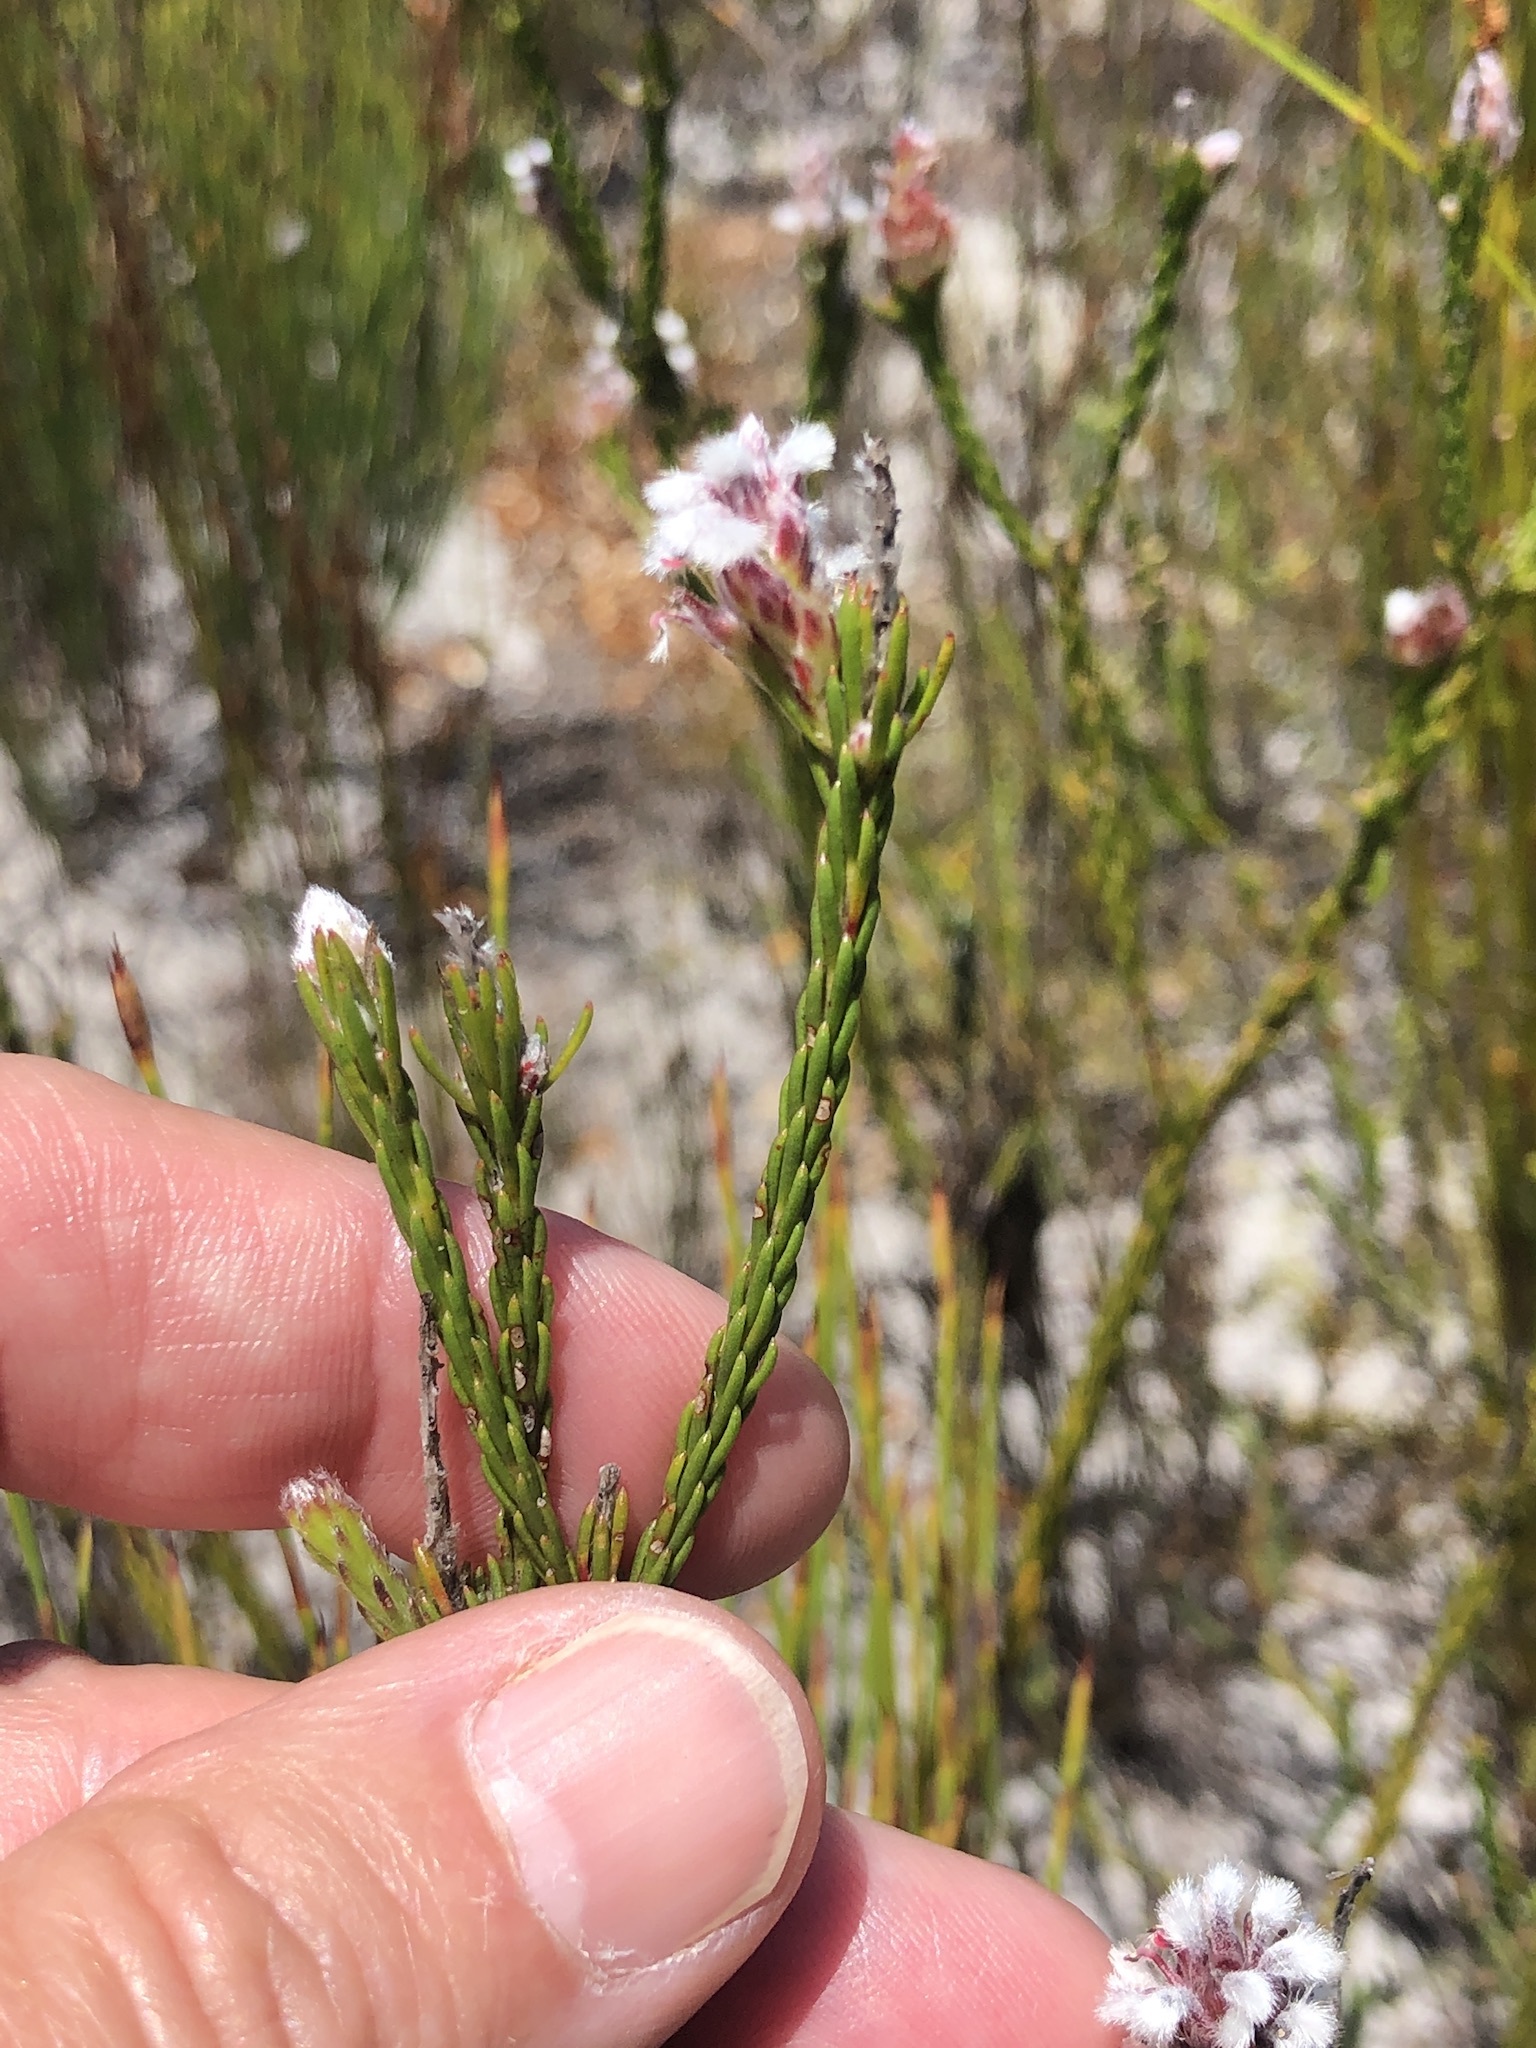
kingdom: Plantae
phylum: Tracheophyta
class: Magnoliopsida
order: Proteales
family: Proteaceae
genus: Spatalla
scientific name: Spatalla squamata
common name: Silky spoon
